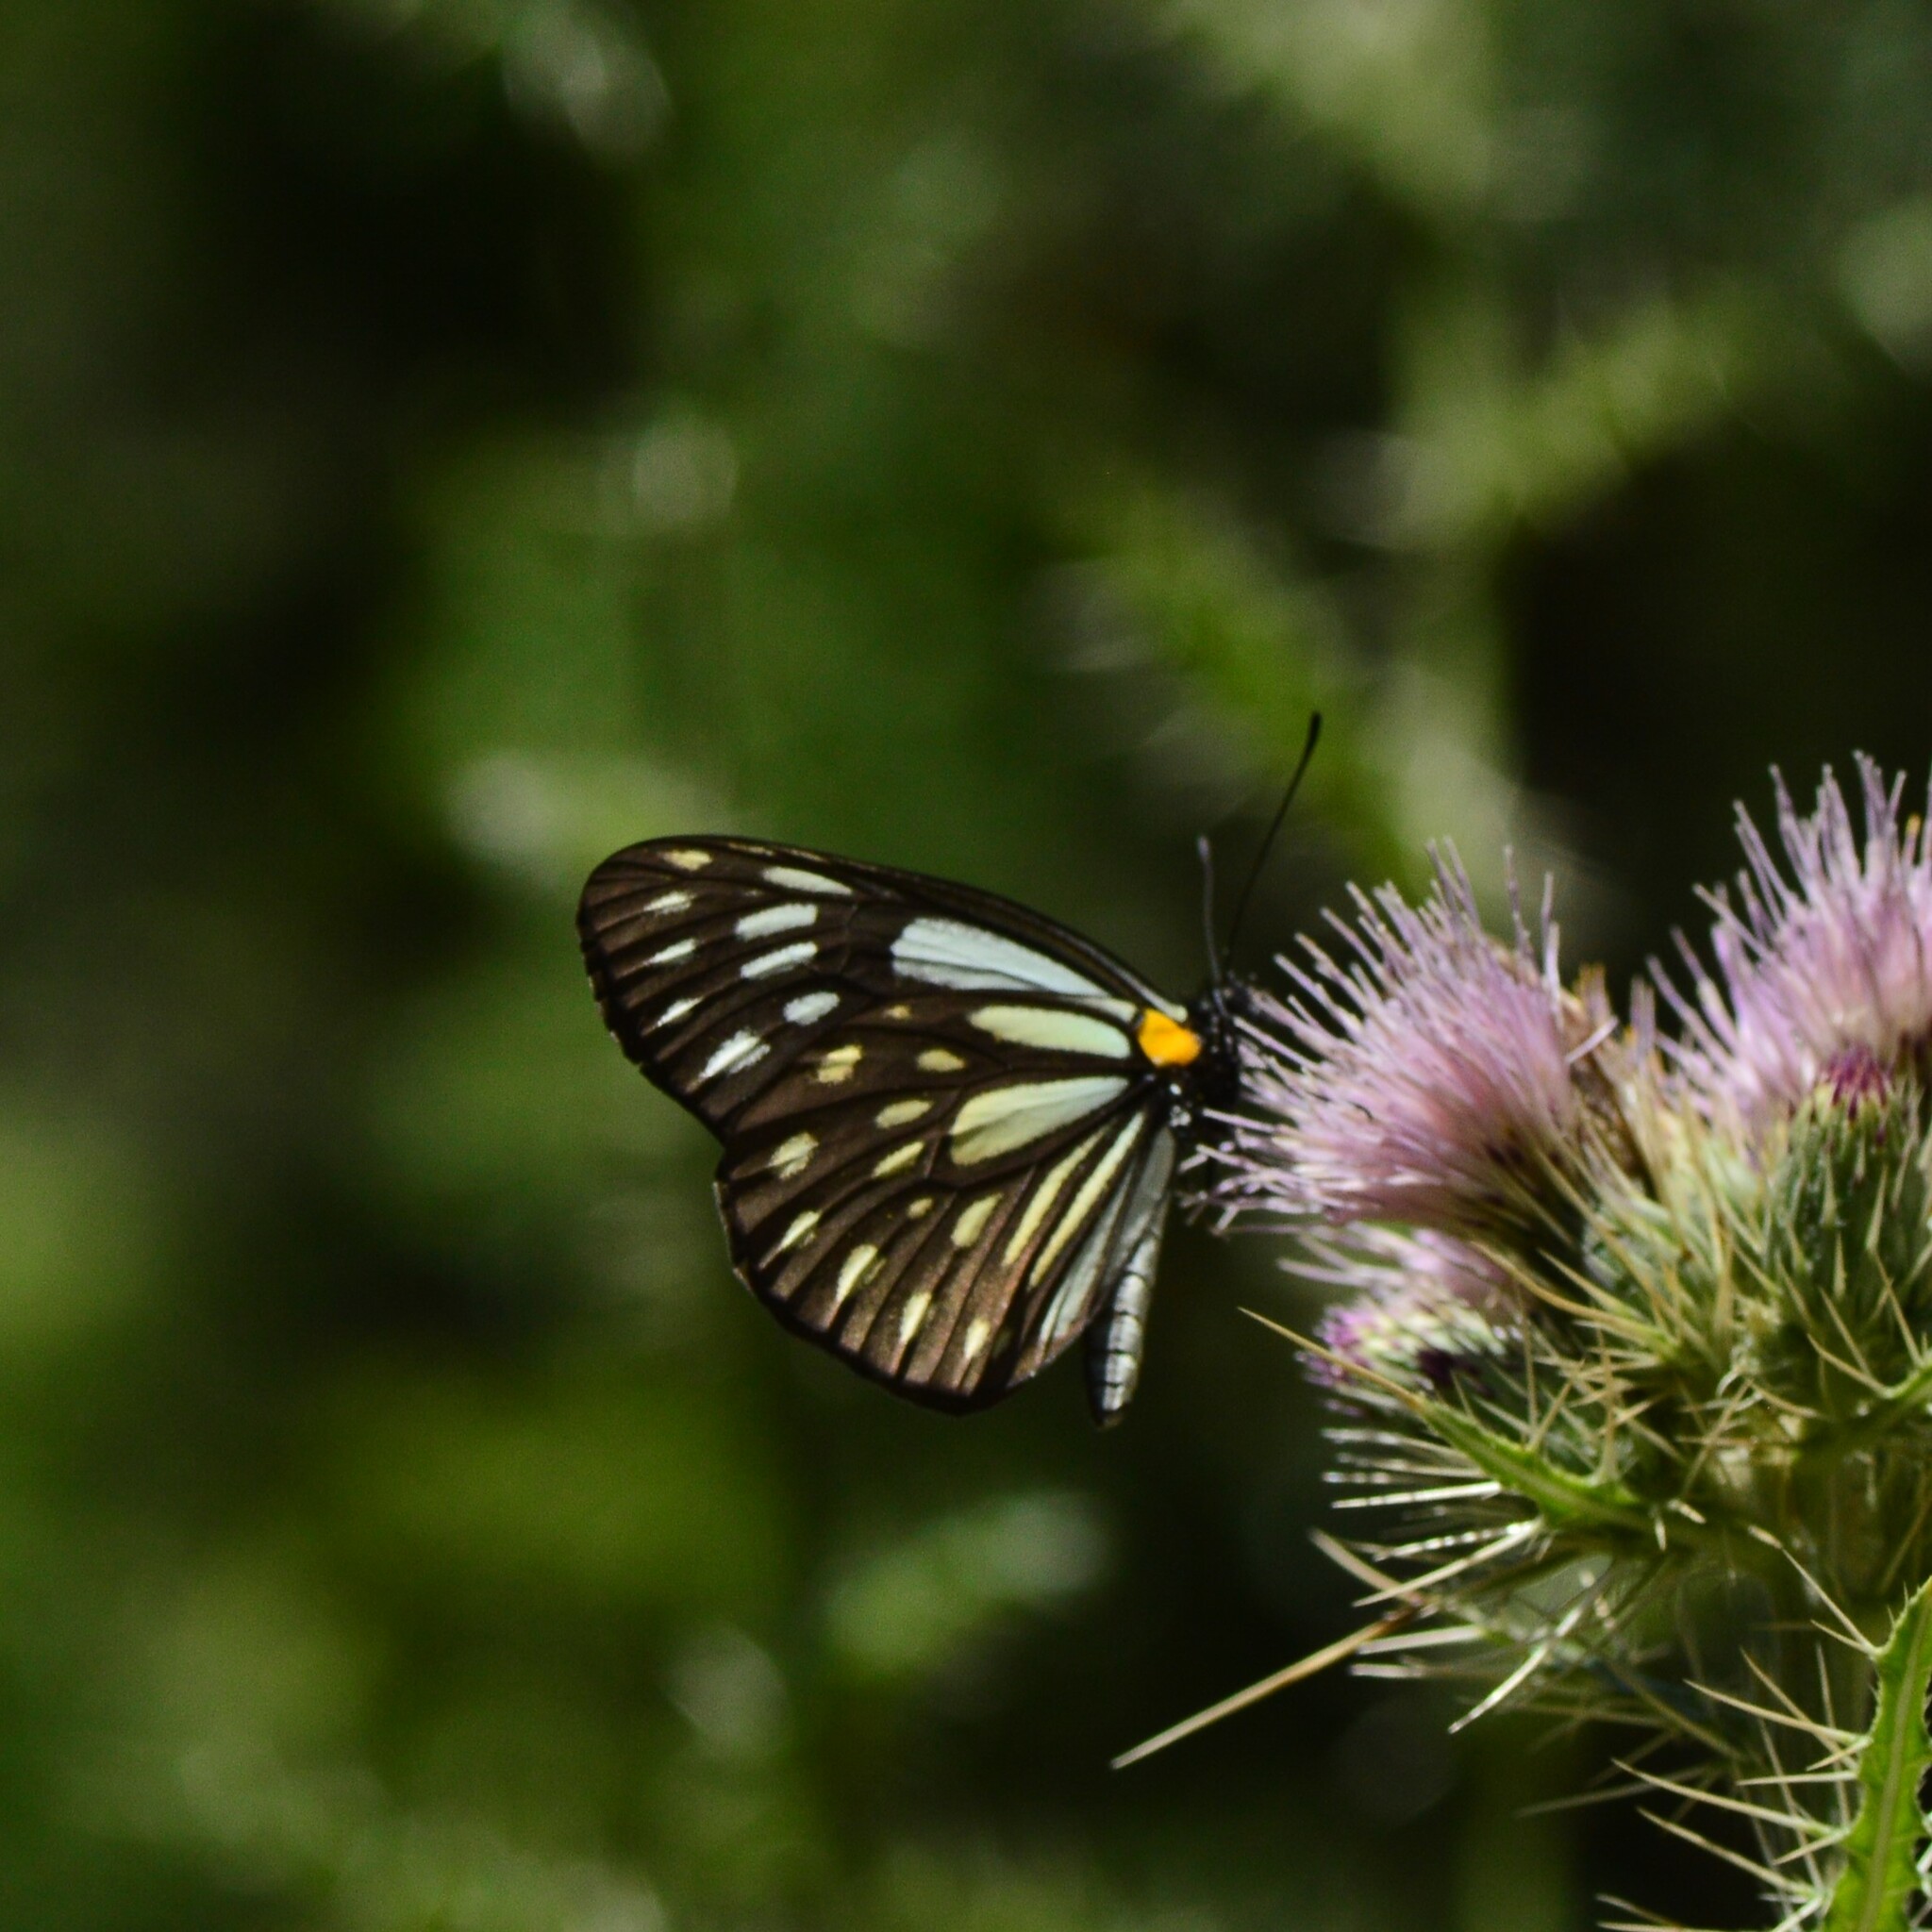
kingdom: Animalia
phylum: Arthropoda
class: Insecta
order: Lepidoptera
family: Pieridae
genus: Aporia
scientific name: Aporia agathon
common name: Great blackvein
